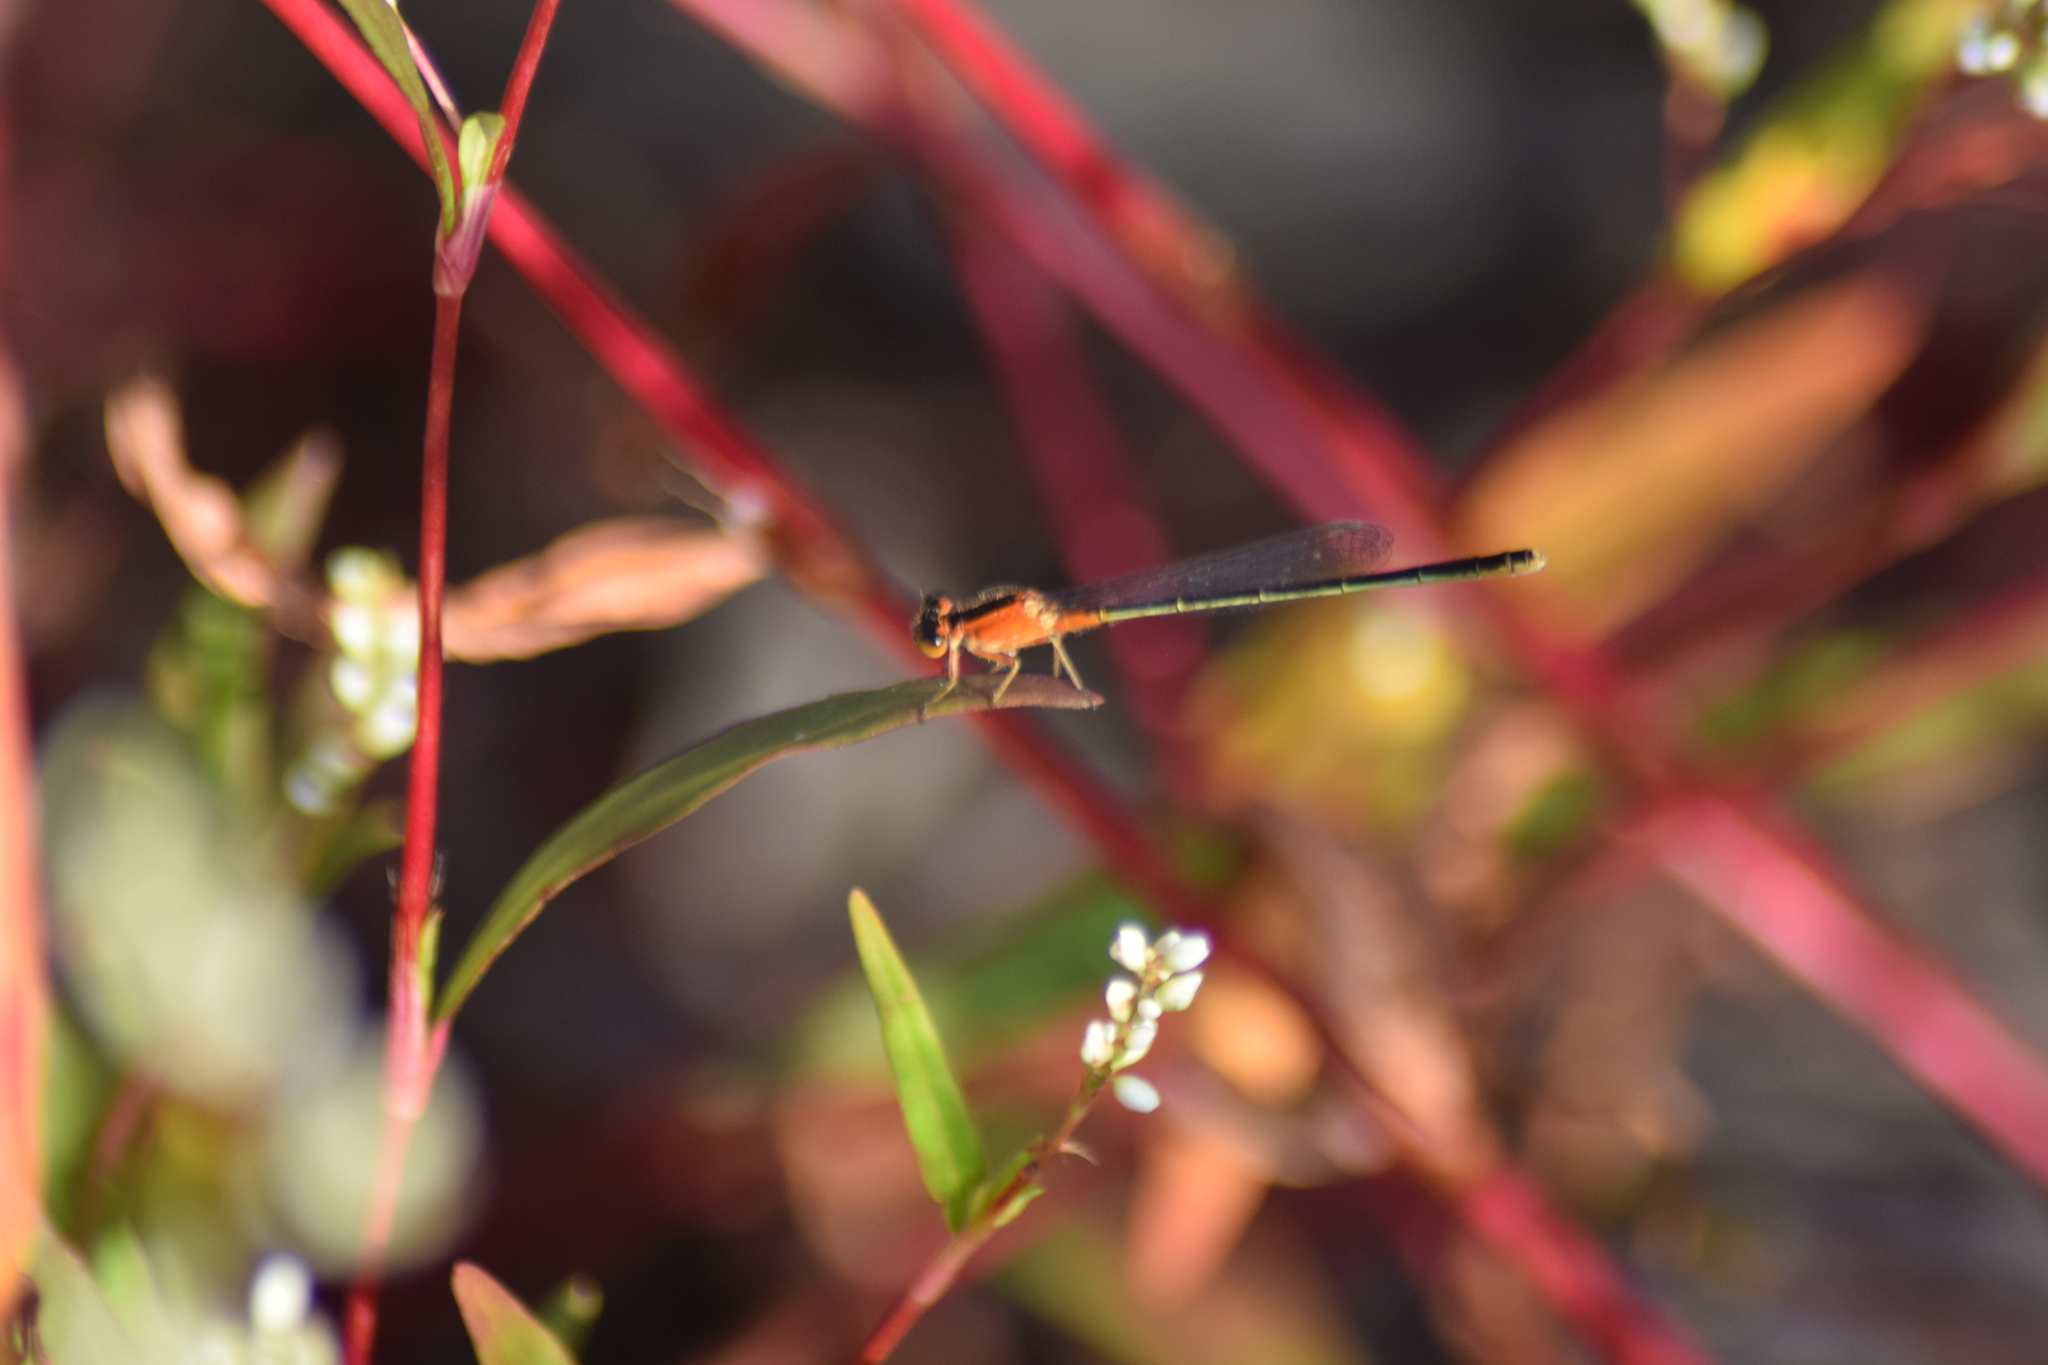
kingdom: Animalia
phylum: Arthropoda
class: Insecta
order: Odonata
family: Coenagrionidae
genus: Ischnura
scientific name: Ischnura ramburii
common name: Rambur's forktail
